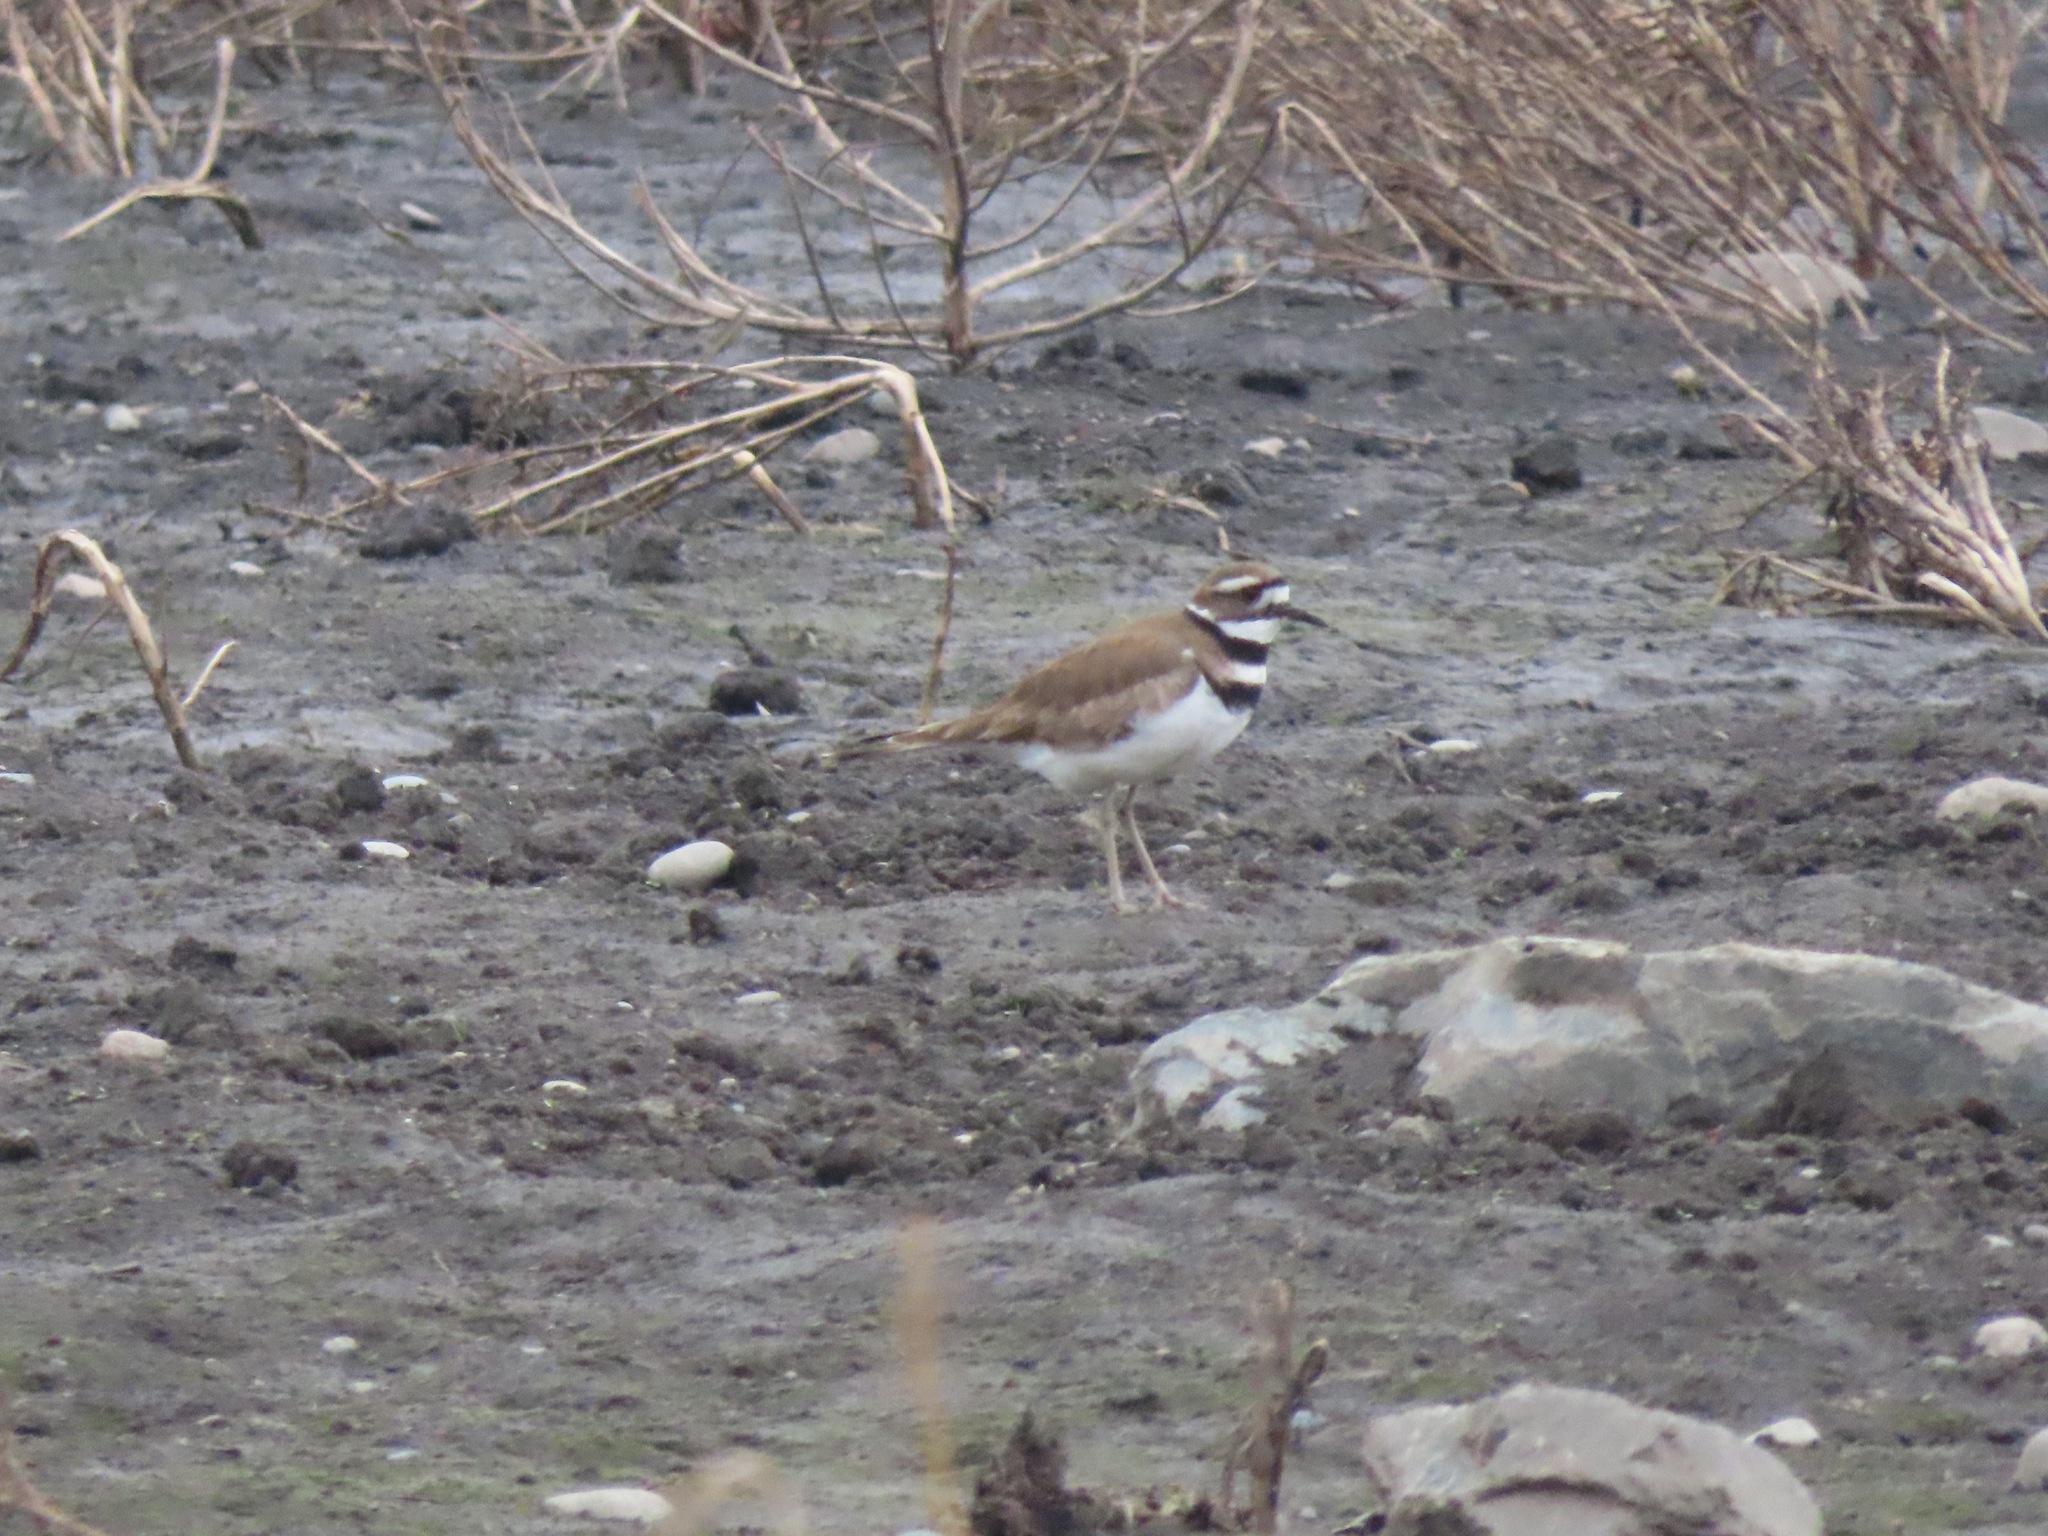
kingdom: Animalia
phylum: Chordata
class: Aves
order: Charadriiformes
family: Charadriidae
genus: Charadrius
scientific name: Charadrius vociferus
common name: Killdeer
